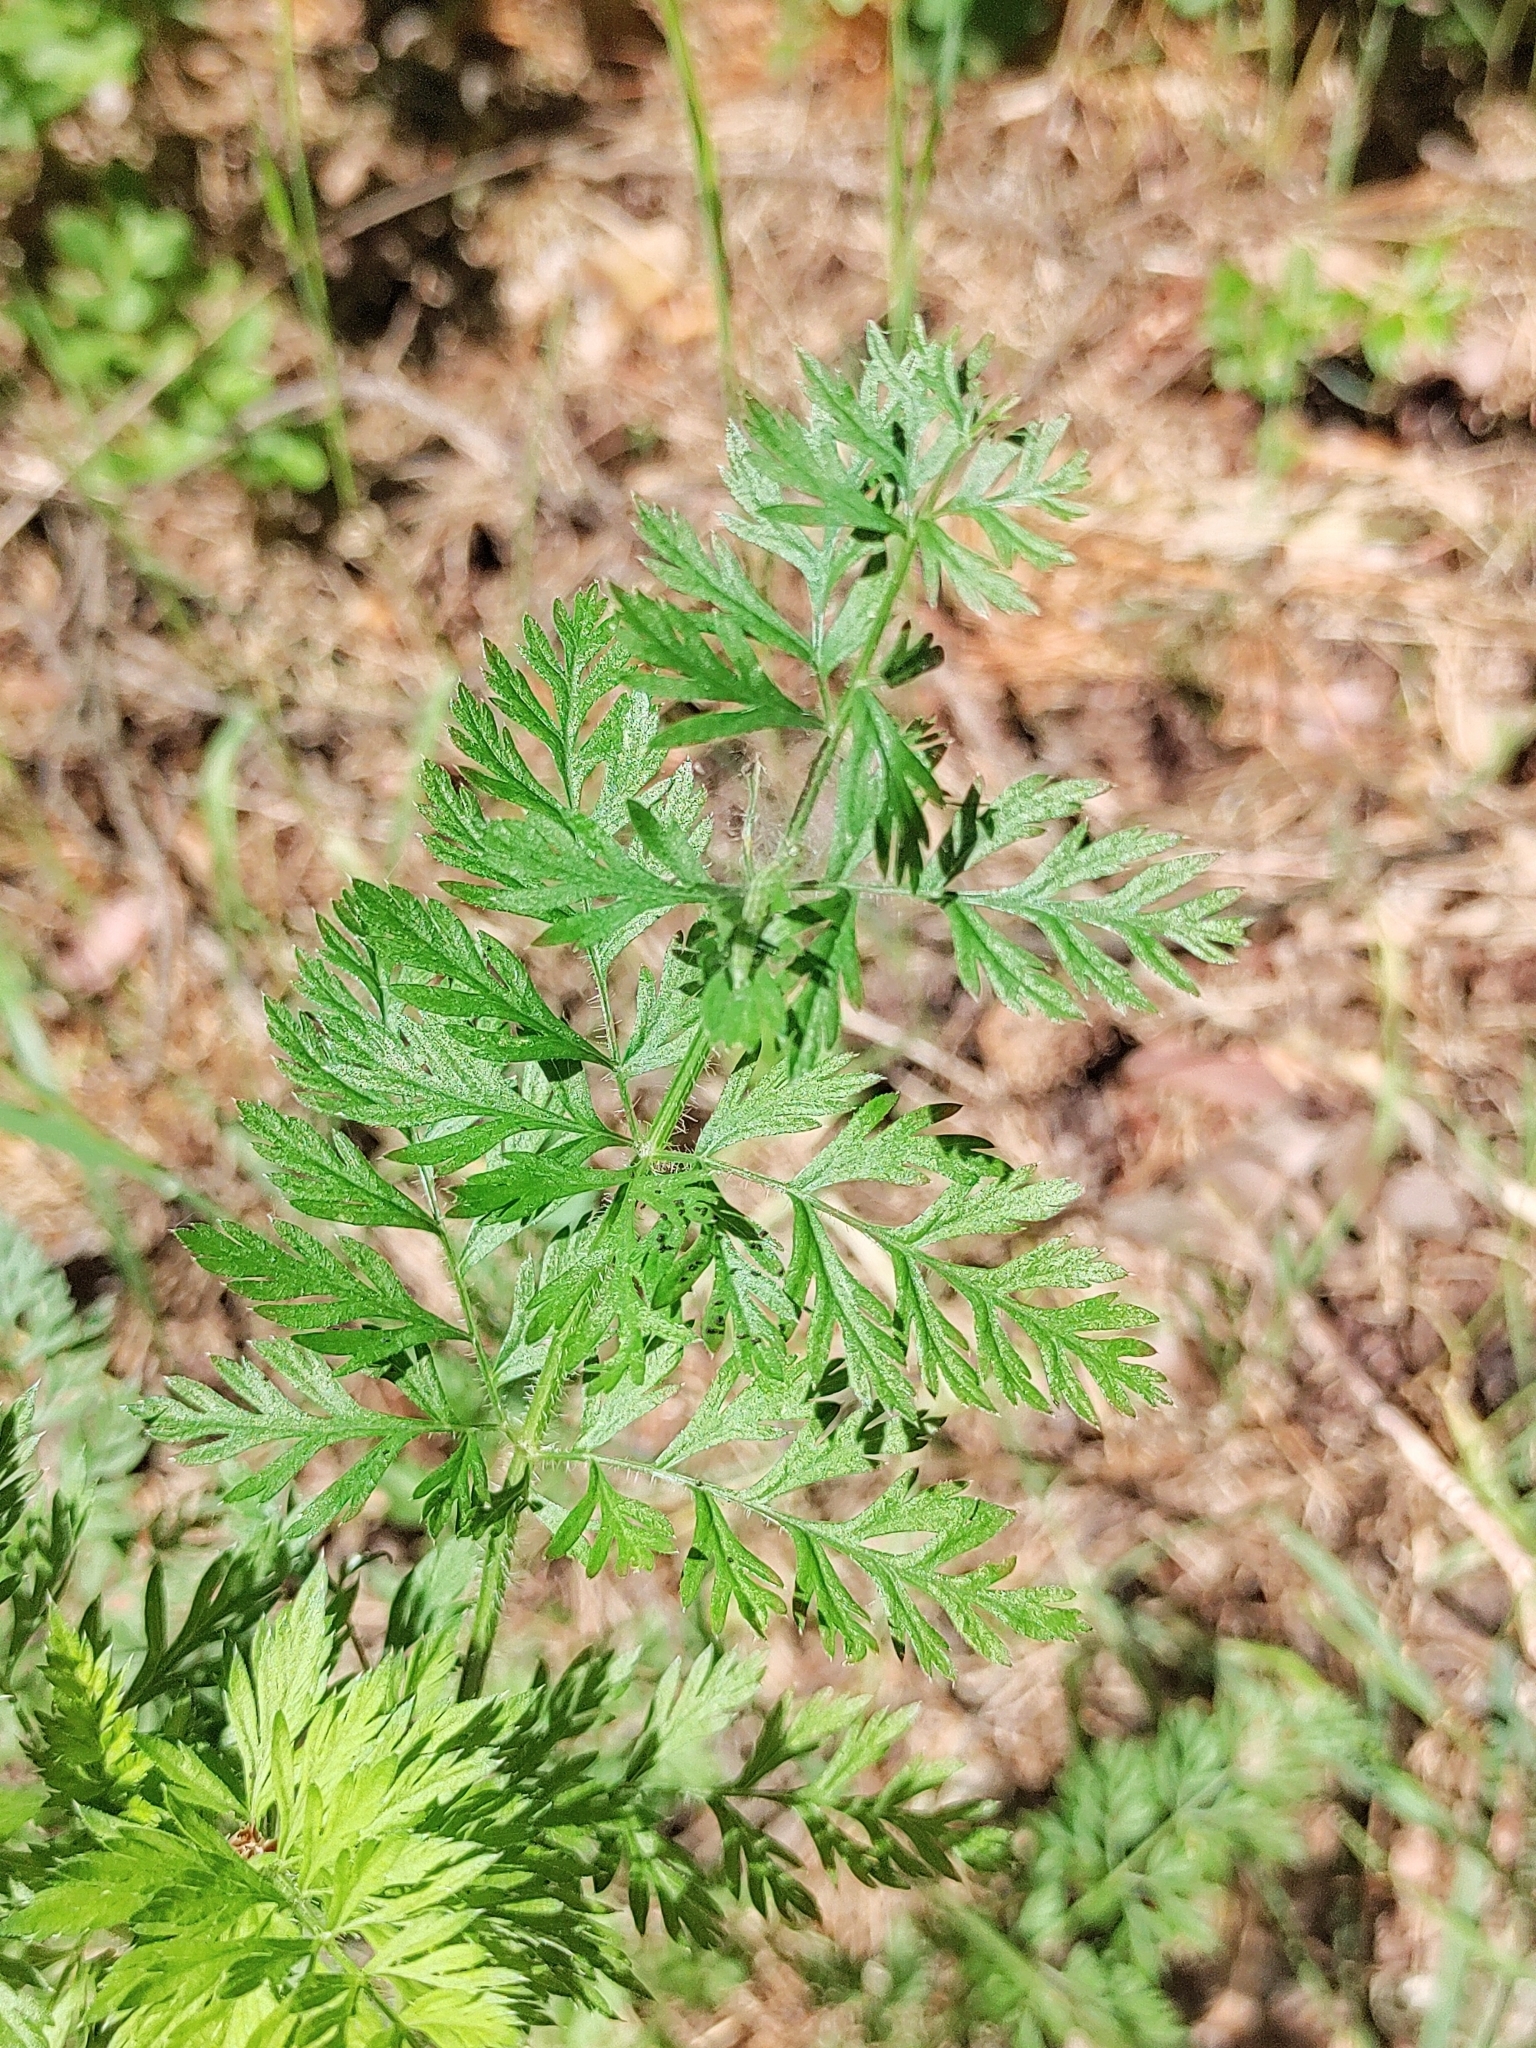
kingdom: Plantae
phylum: Tracheophyta
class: Magnoliopsida
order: Apiales
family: Apiaceae
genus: Daucus
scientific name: Daucus carota
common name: Wild carrot
